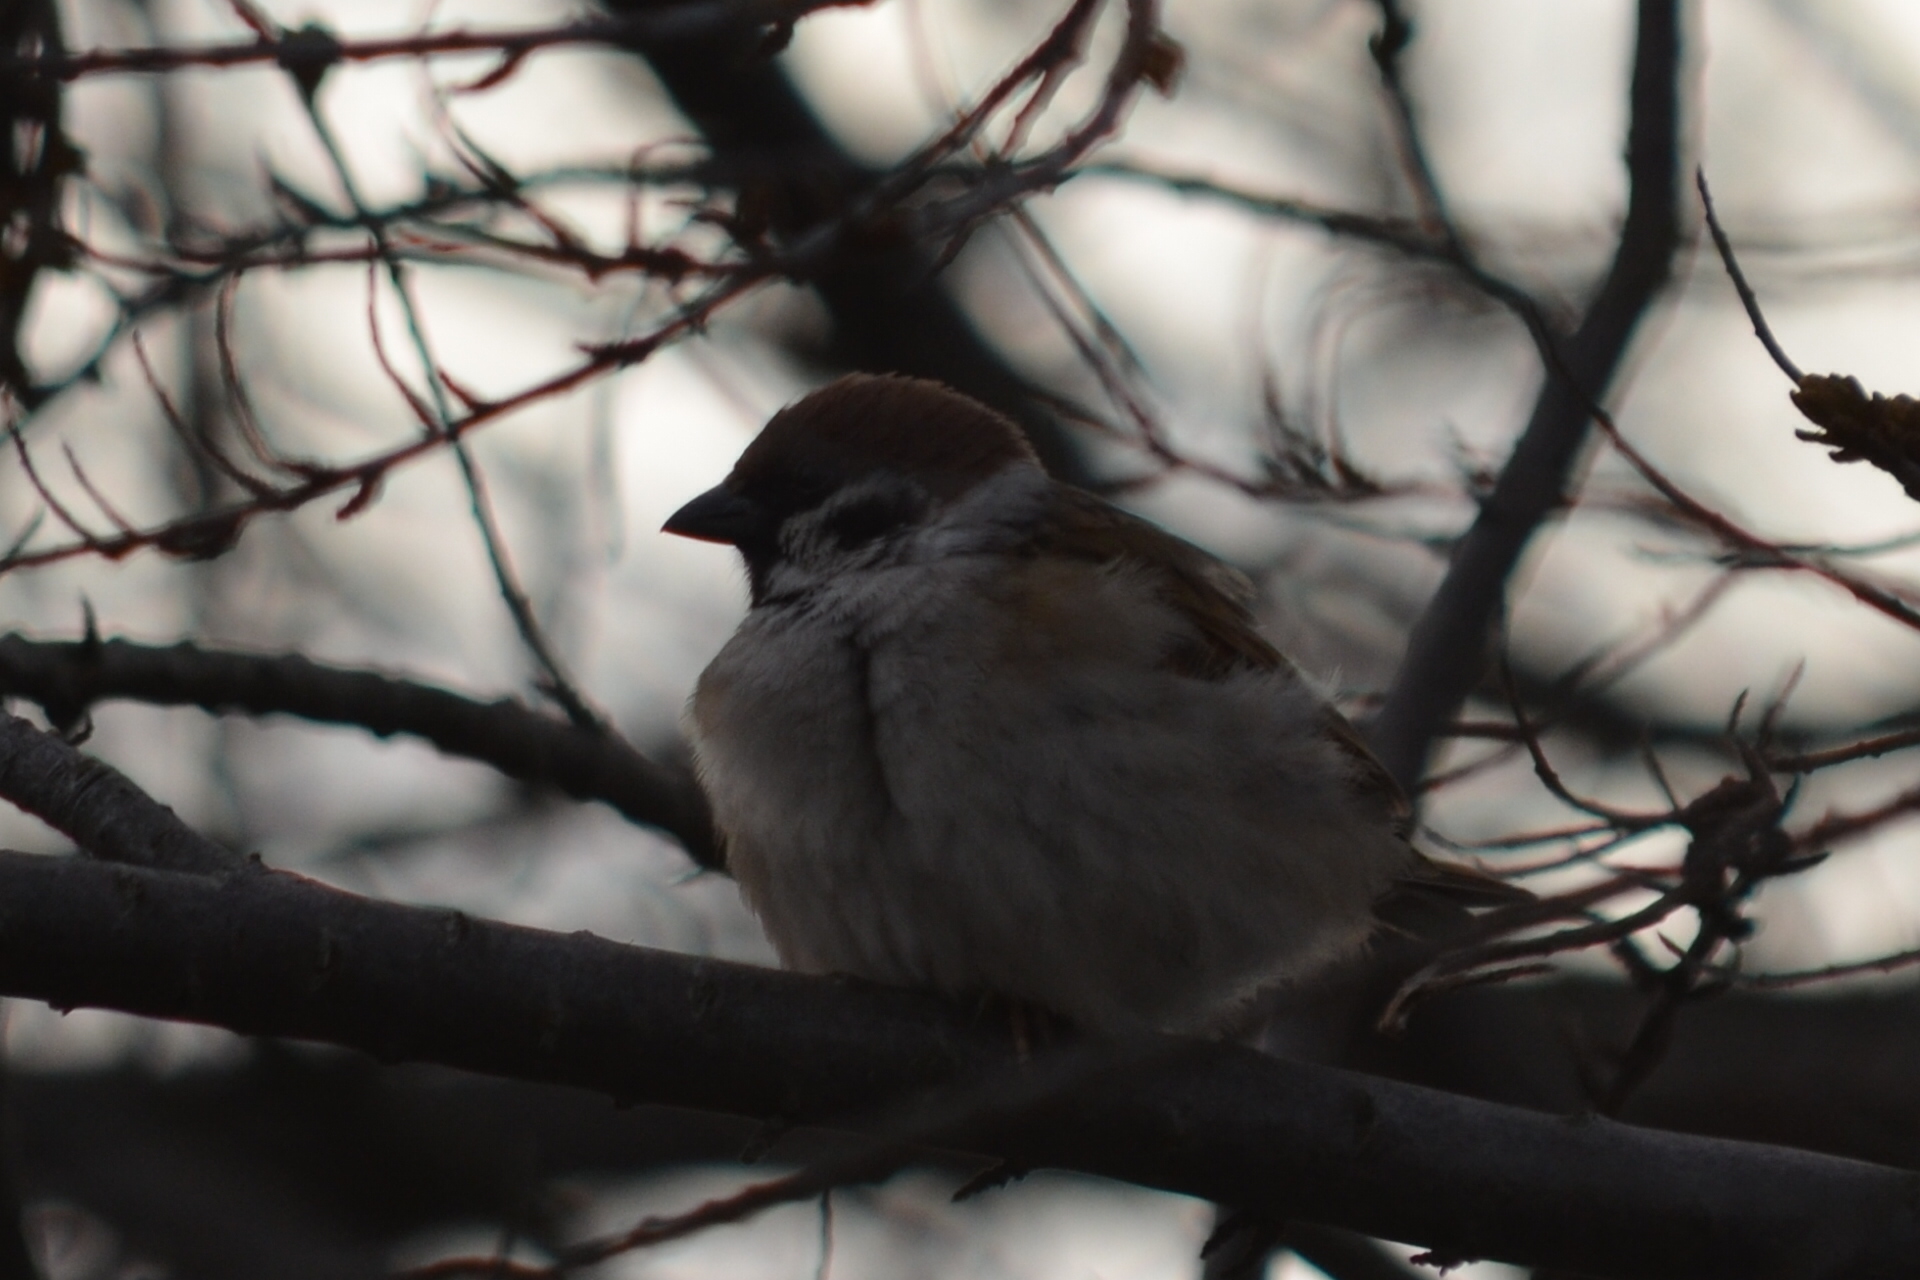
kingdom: Animalia
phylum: Chordata
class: Aves
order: Passeriformes
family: Passeridae
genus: Passer
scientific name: Passer montanus
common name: Eurasian tree sparrow
